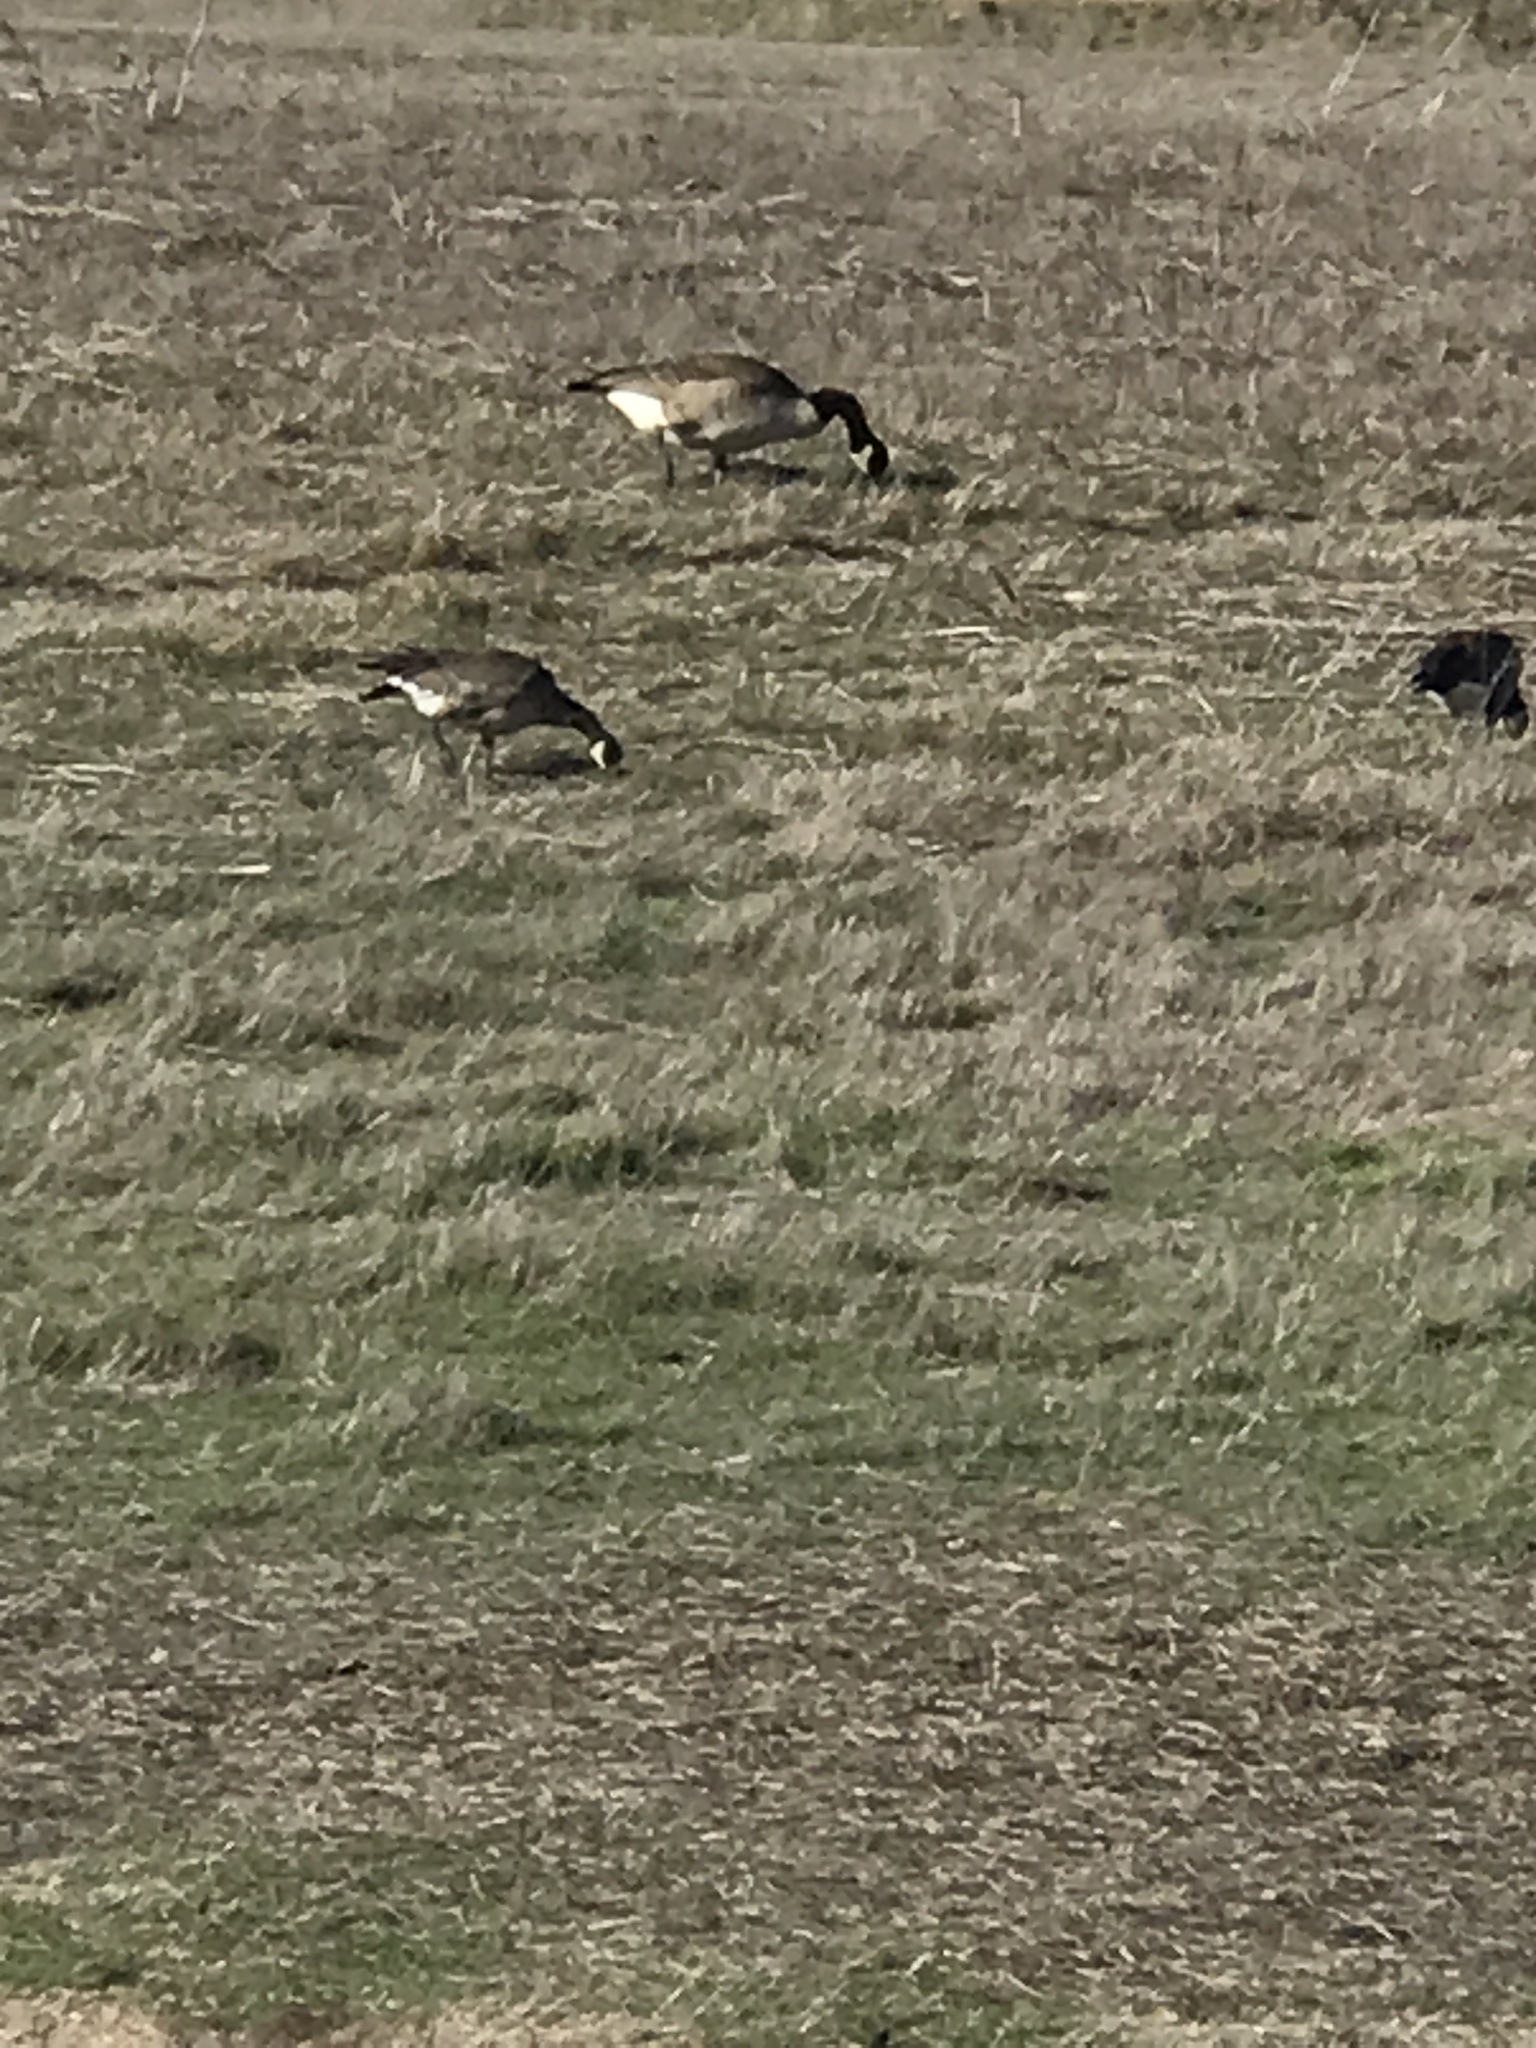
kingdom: Animalia
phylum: Chordata
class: Aves
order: Anseriformes
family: Anatidae
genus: Branta
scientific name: Branta hutchinsii
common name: Cackling goose
